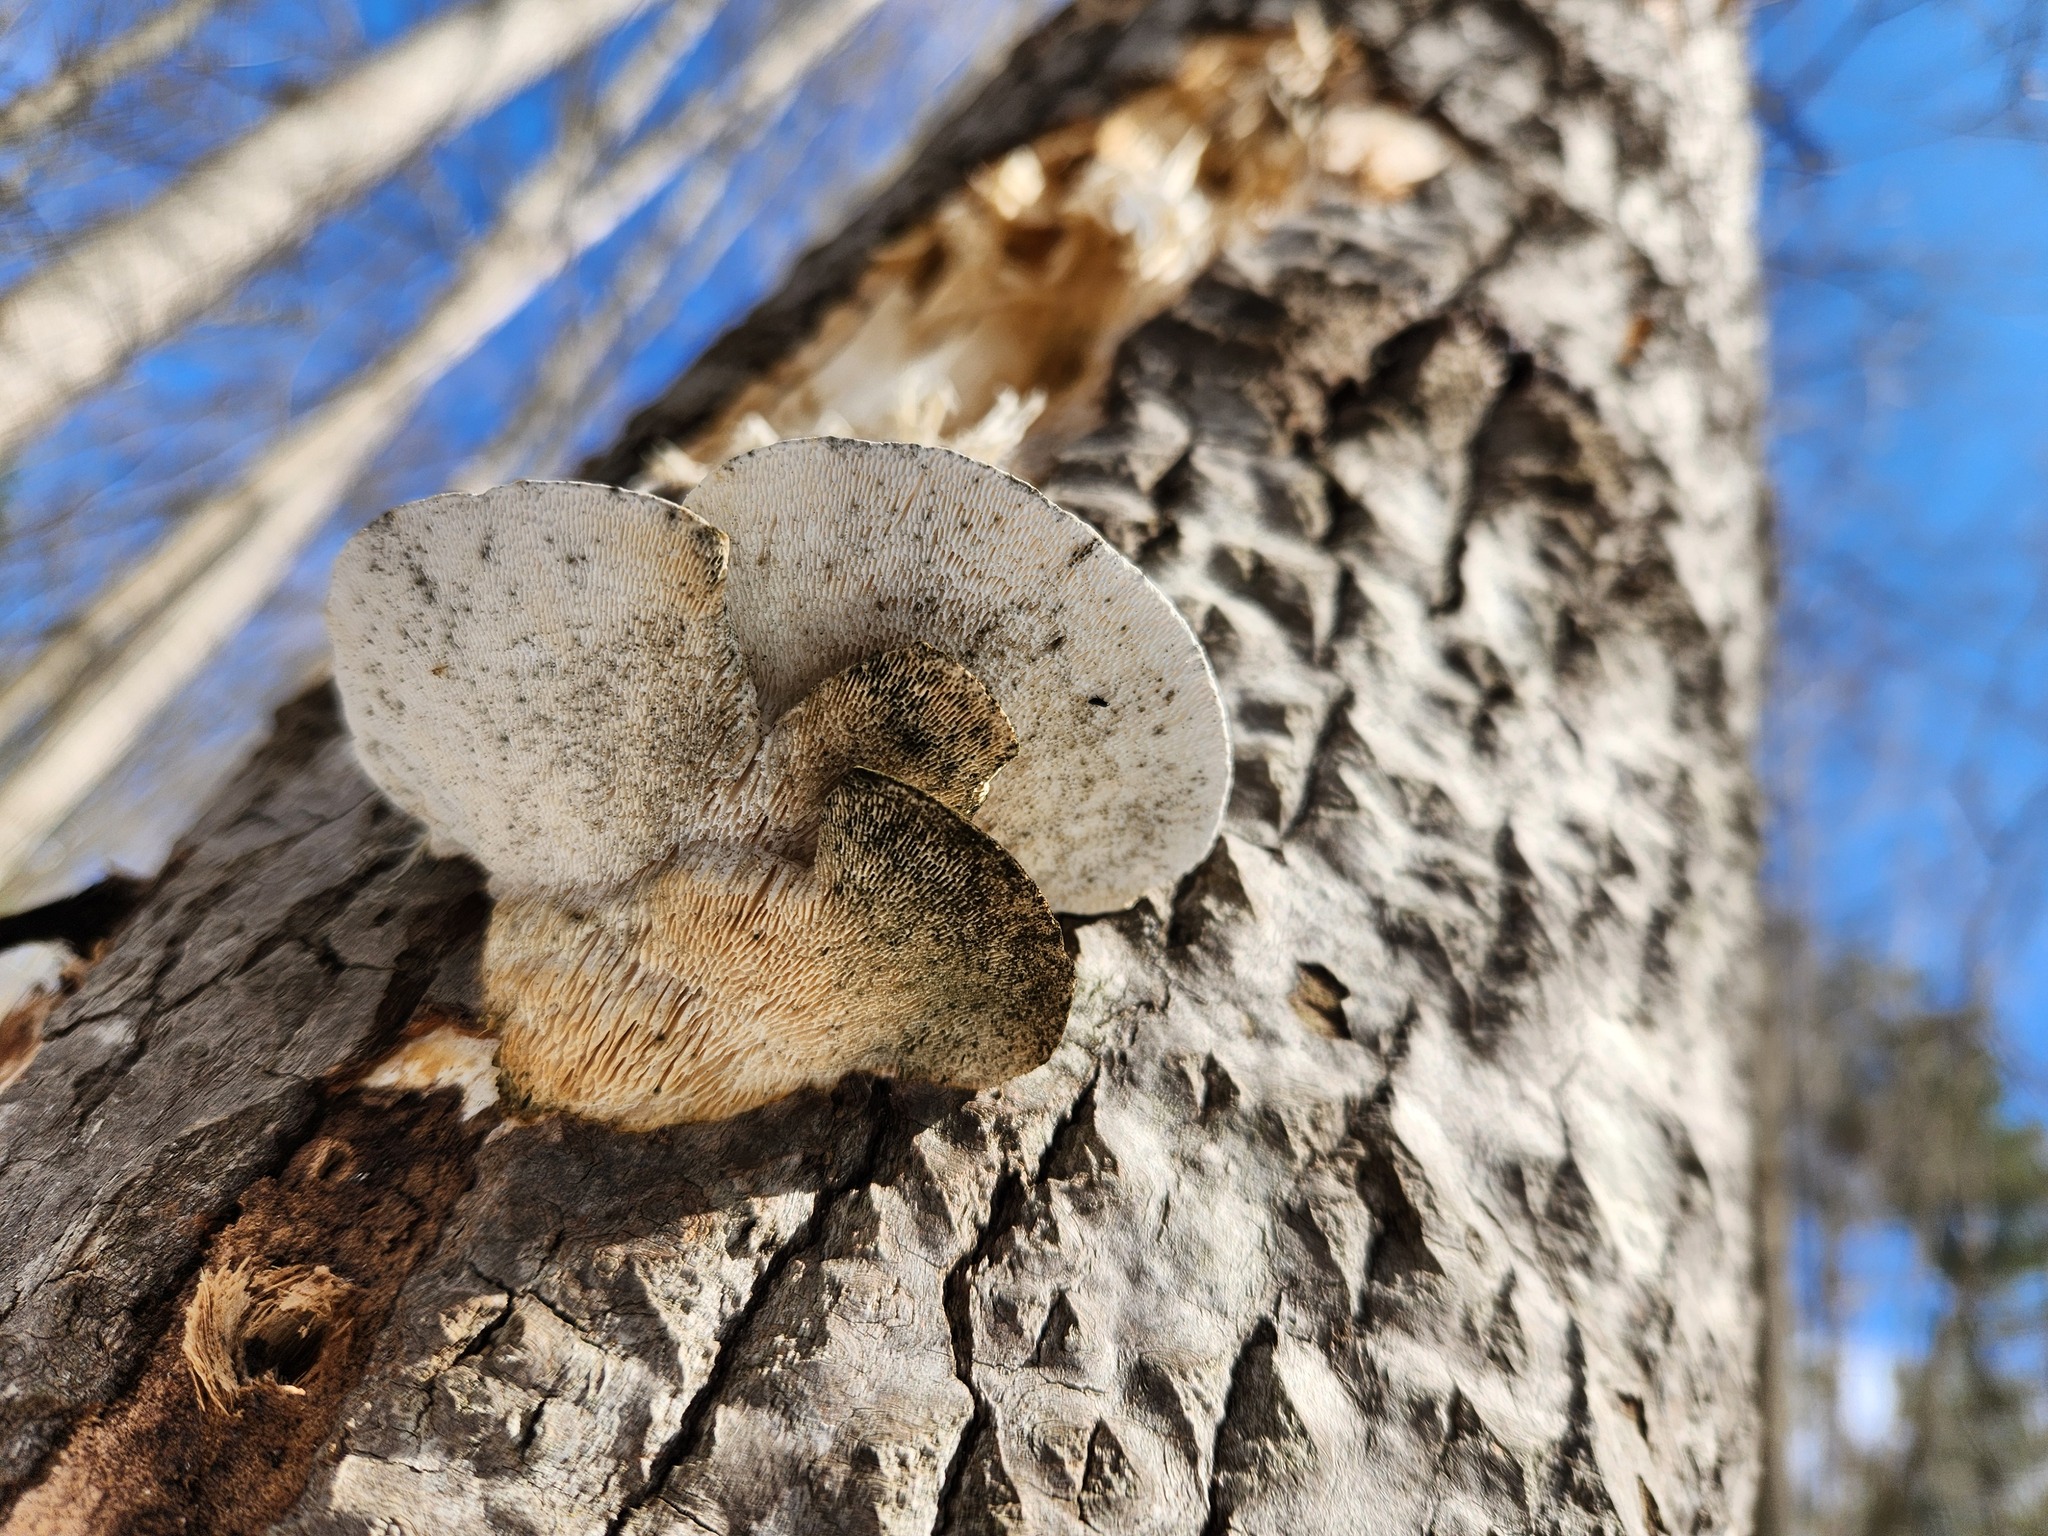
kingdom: Fungi
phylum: Basidiomycota
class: Agaricomycetes
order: Polyporales
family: Polyporaceae
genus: Trametes
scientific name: Trametes gibbosa
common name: Lumpy bracket
